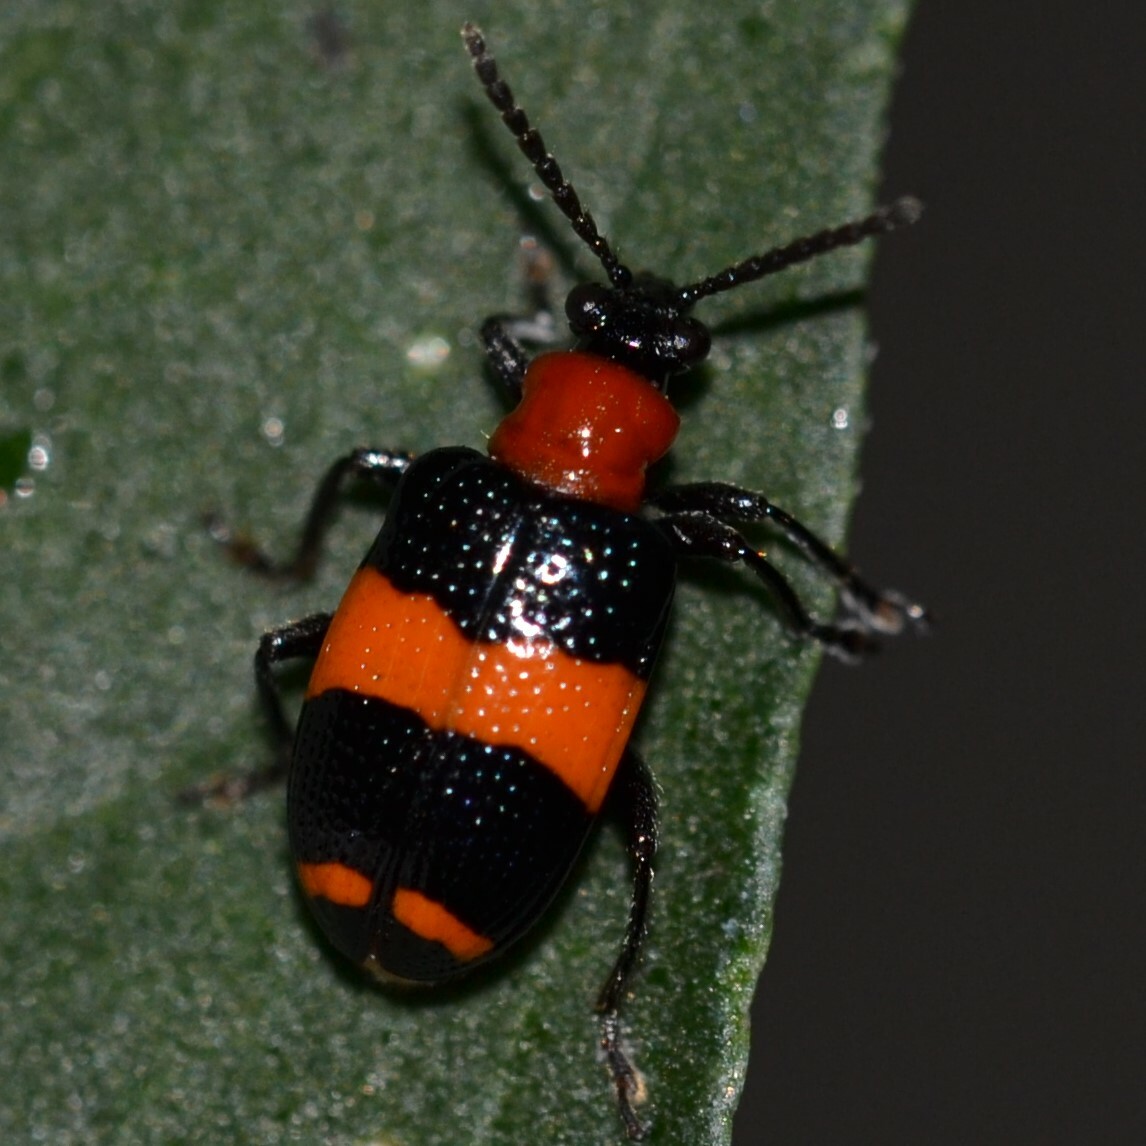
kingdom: Animalia
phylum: Arthropoda
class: Insecta
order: Coleoptera
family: Chrysomelidae
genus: Lema
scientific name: Lema solani
